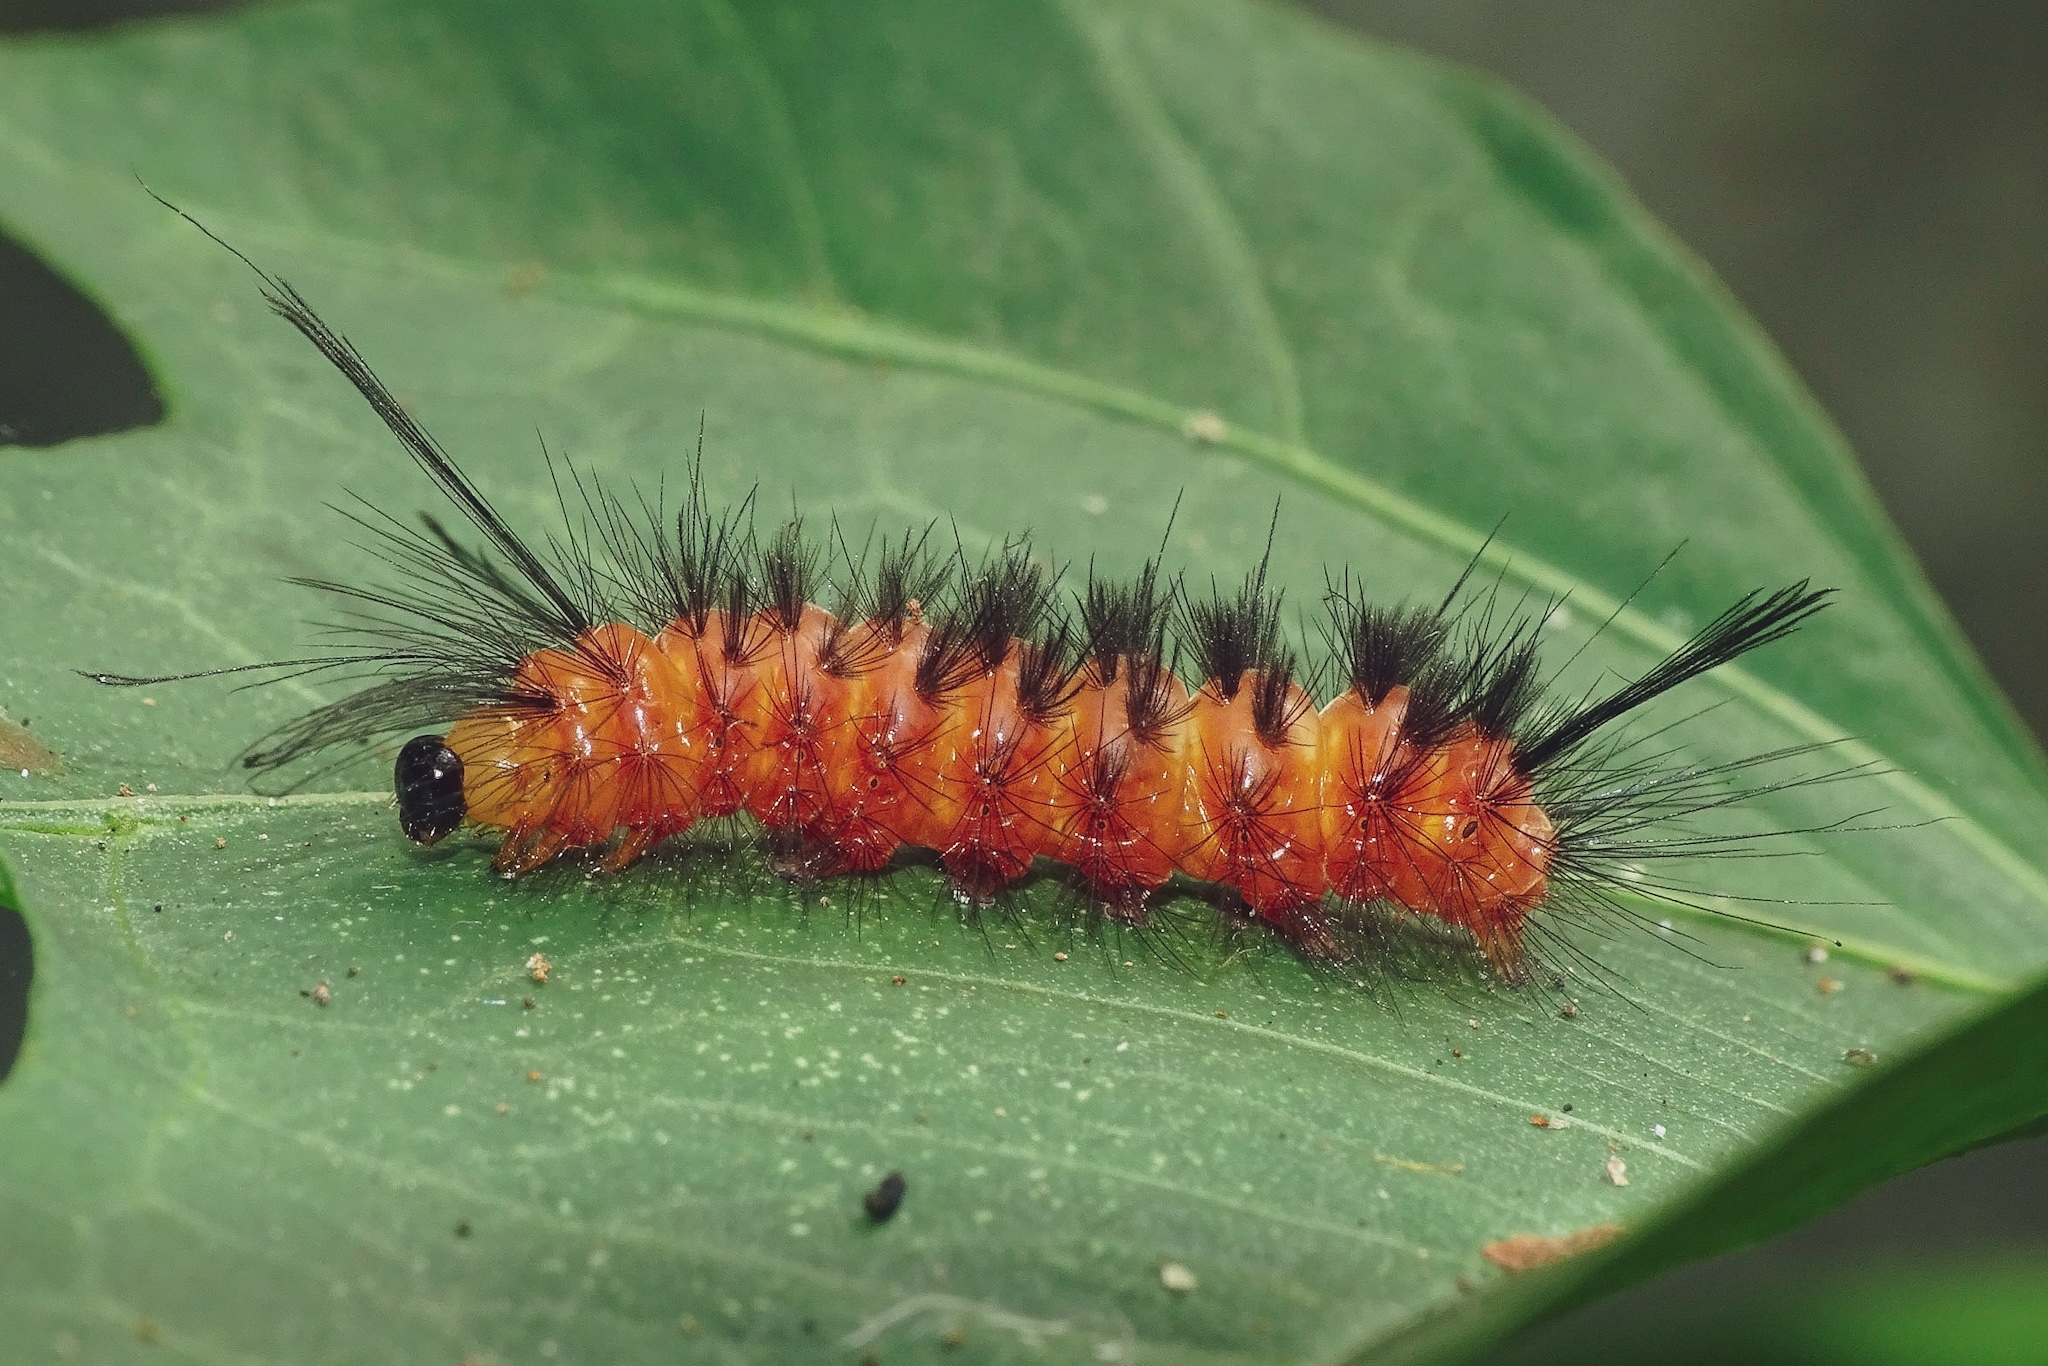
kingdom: Animalia
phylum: Arthropoda
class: Insecta
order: Lepidoptera
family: Erebidae
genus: Euchromia
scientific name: Euchromia polymena
